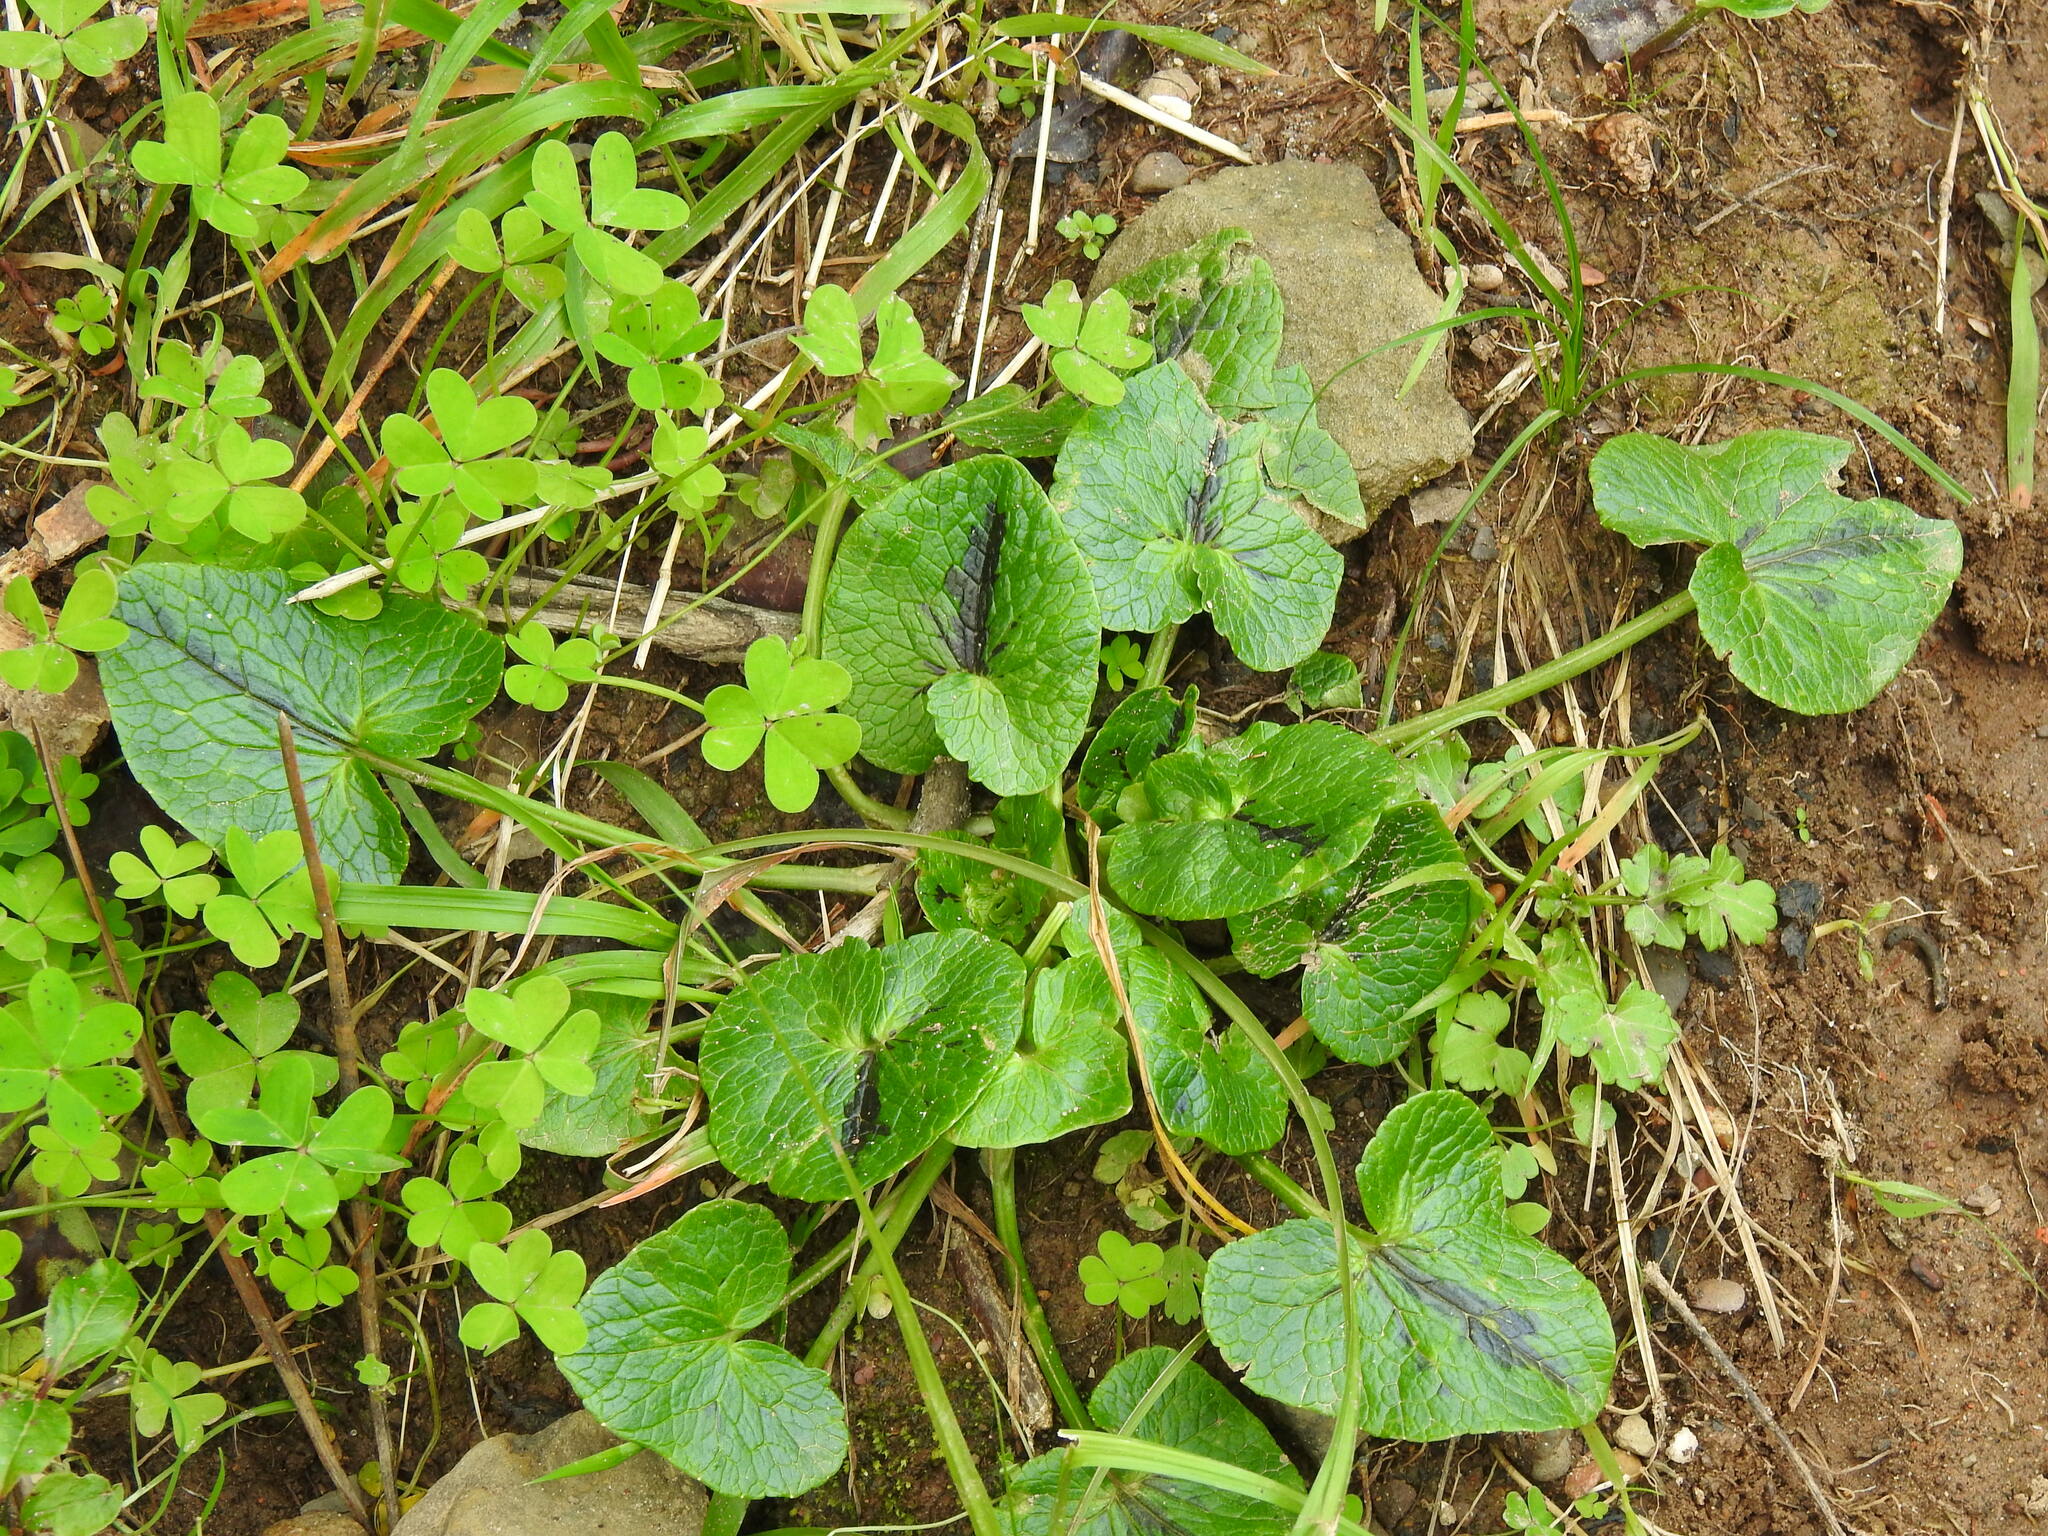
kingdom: Plantae
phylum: Tracheophyta
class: Magnoliopsida
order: Ranunculales
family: Ranunculaceae
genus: Ficaria
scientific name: Ficaria verna
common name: Lesser celandine
